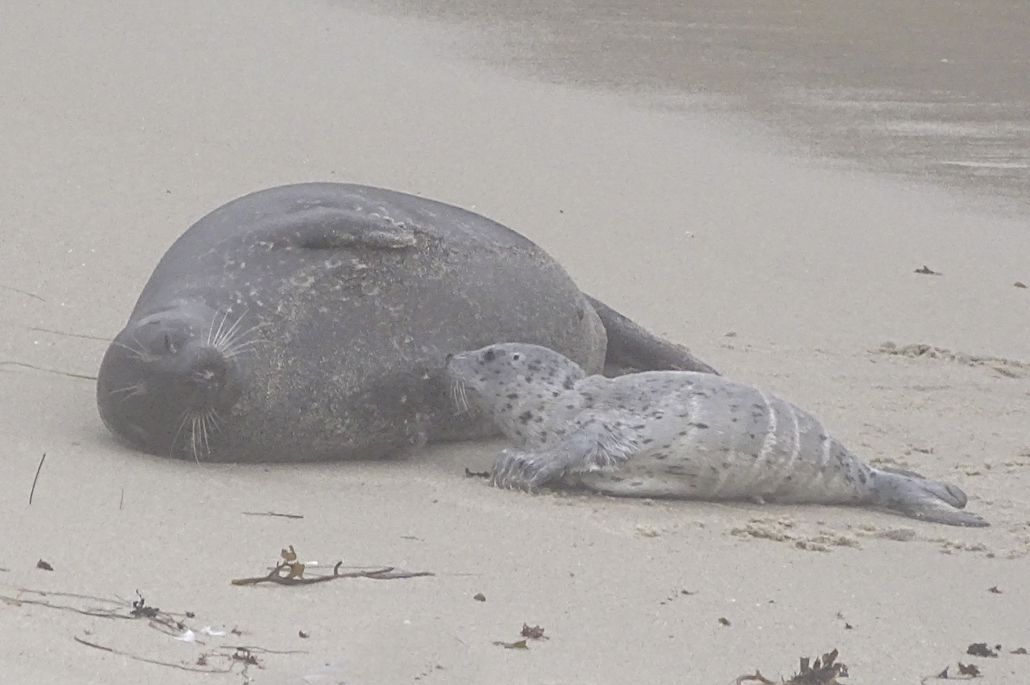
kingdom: Animalia
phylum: Chordata
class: Mammalia
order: Carnivora
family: Phocidae
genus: Phoca
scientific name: Phoca vitulina
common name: Harbor seal
